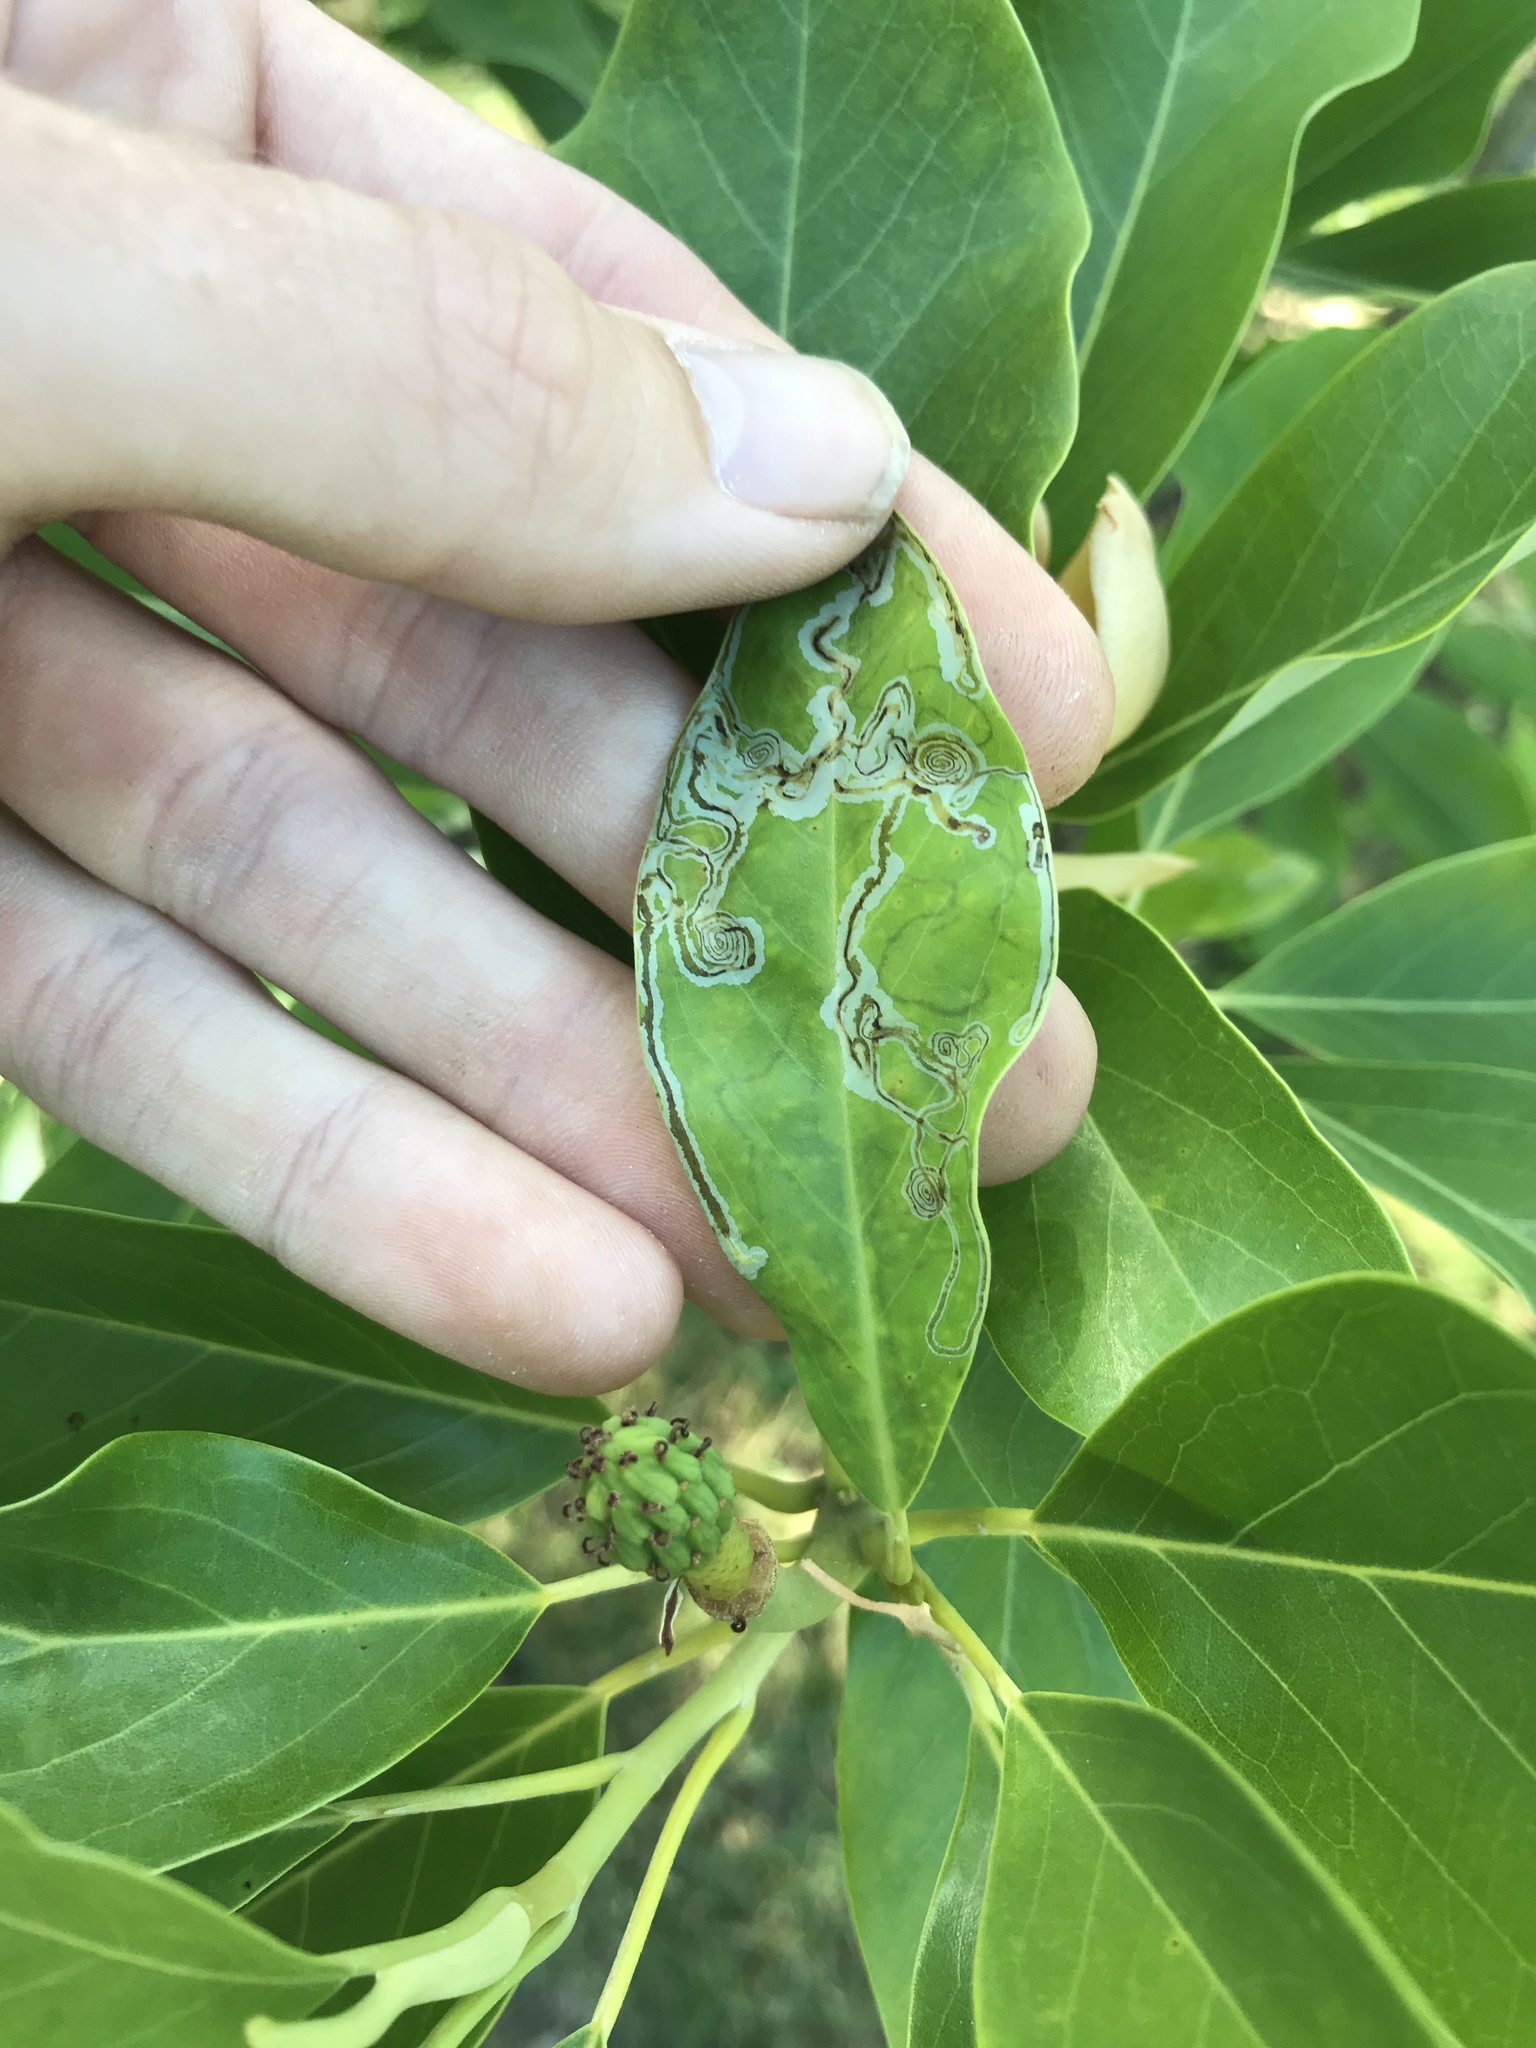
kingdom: Animalia
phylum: Arthropoda
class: Insecta
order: Lepidoptera
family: Gracillariidae
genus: Phyllocnistis
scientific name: Phyllocnistis liriodendronella
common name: Tulip tree leaf miner
